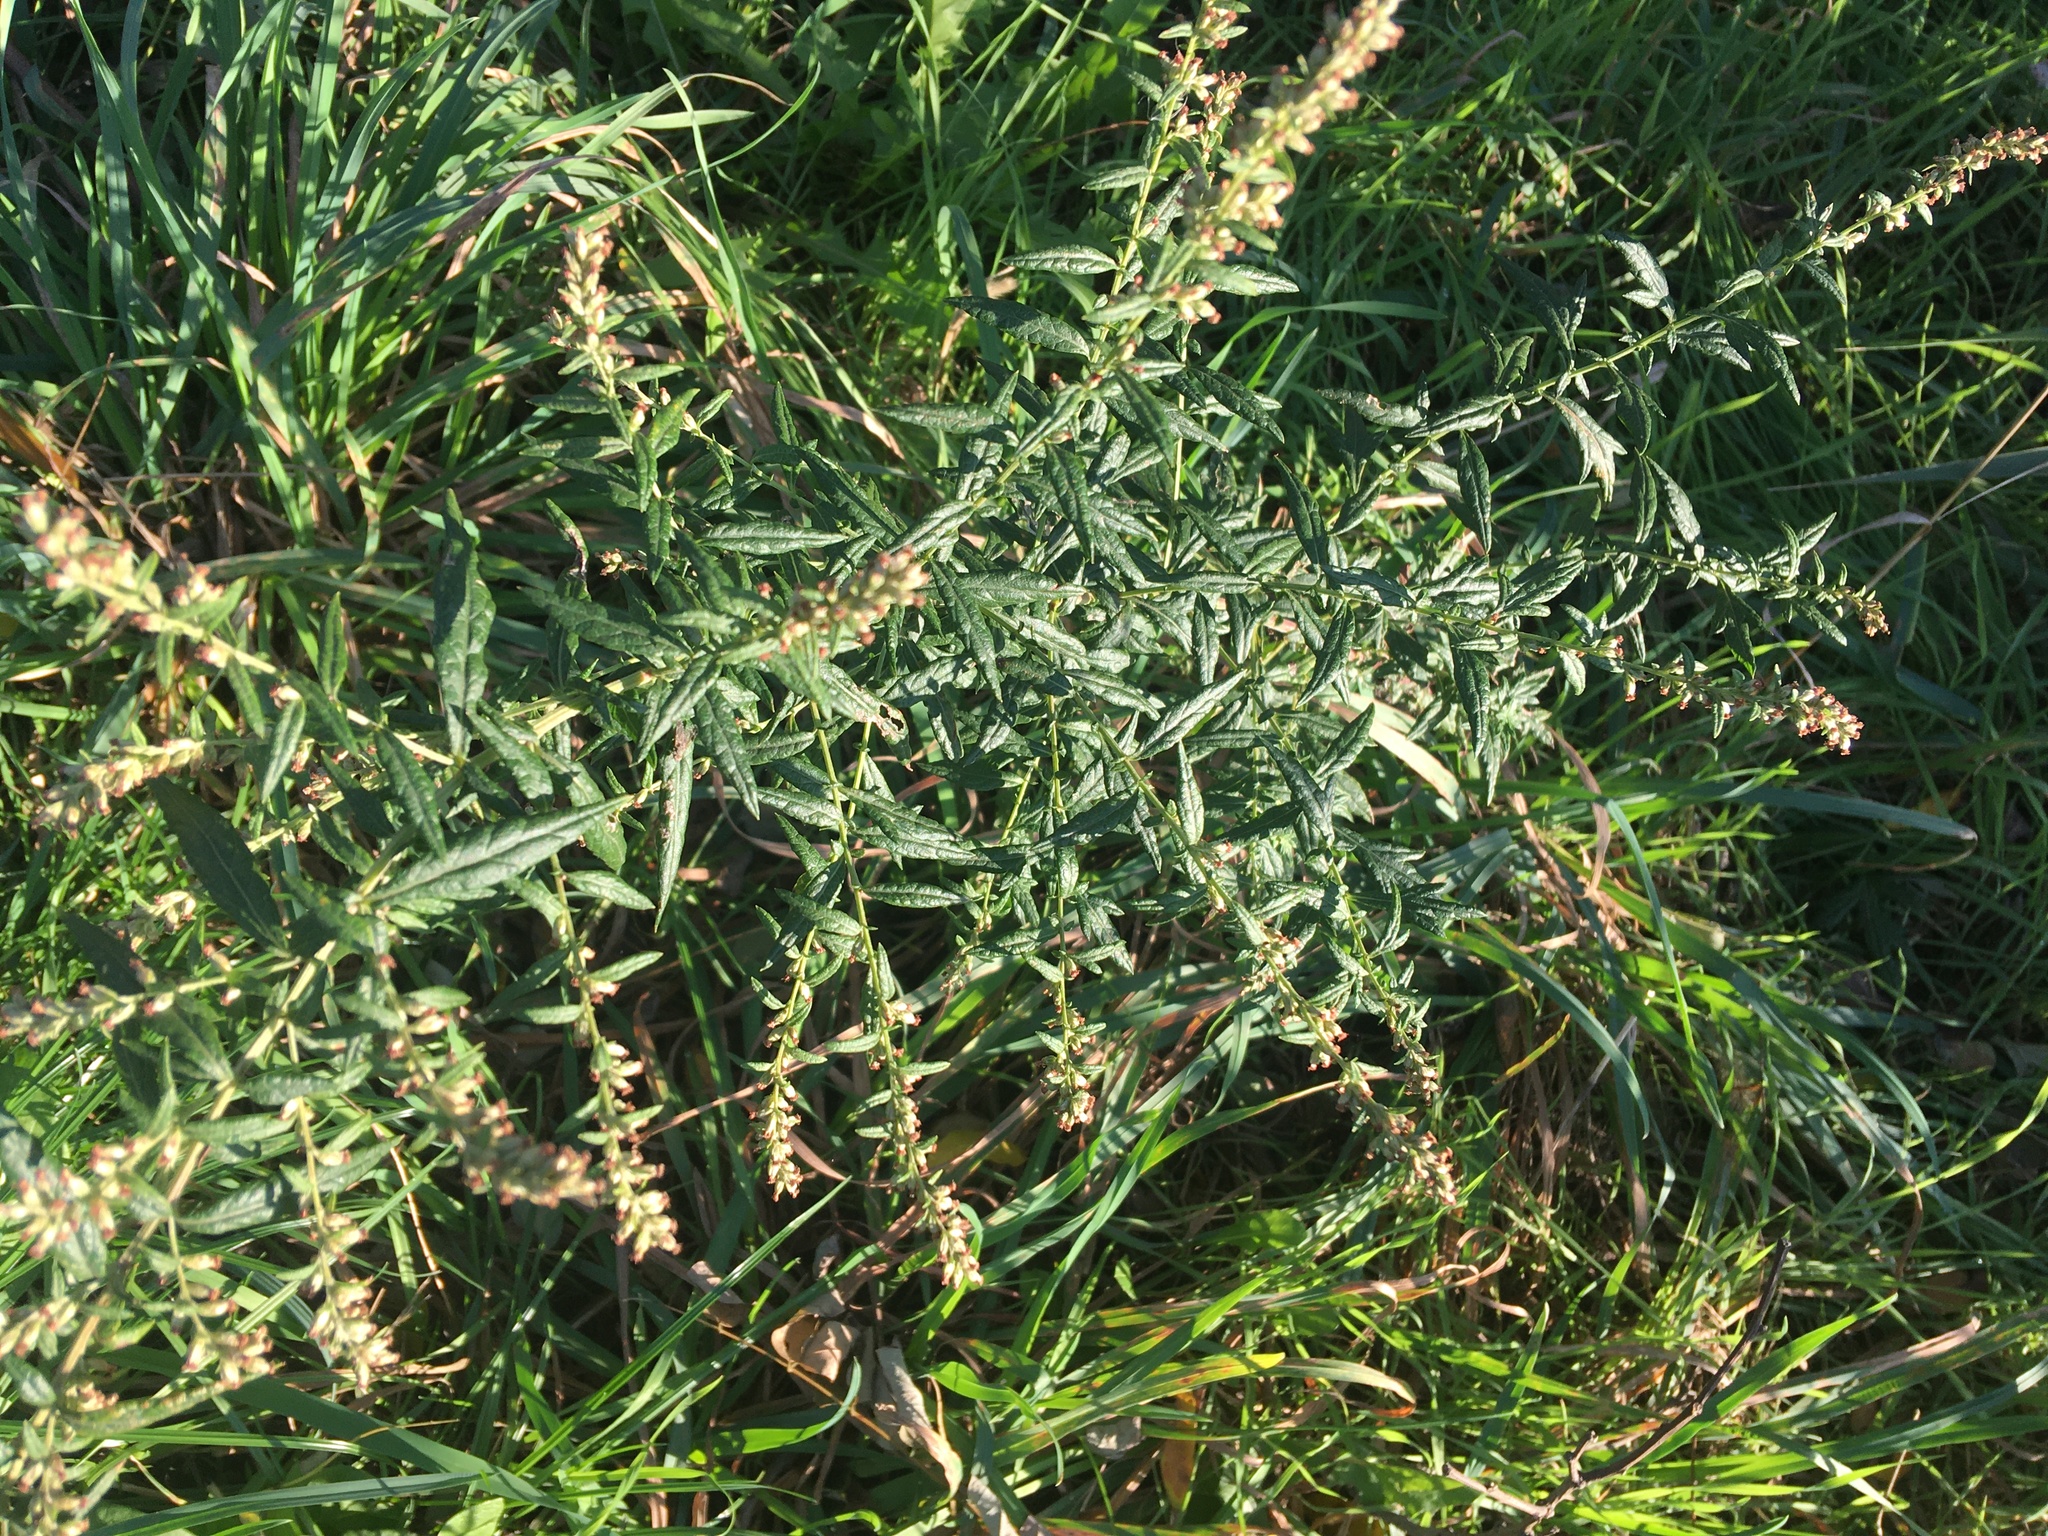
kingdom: Plantae
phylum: Tracheophyta
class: Magnoliopsida
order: Asterales
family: Asteraceae
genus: Artemisia
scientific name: Artemisia vulgaris
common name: Mugwort
